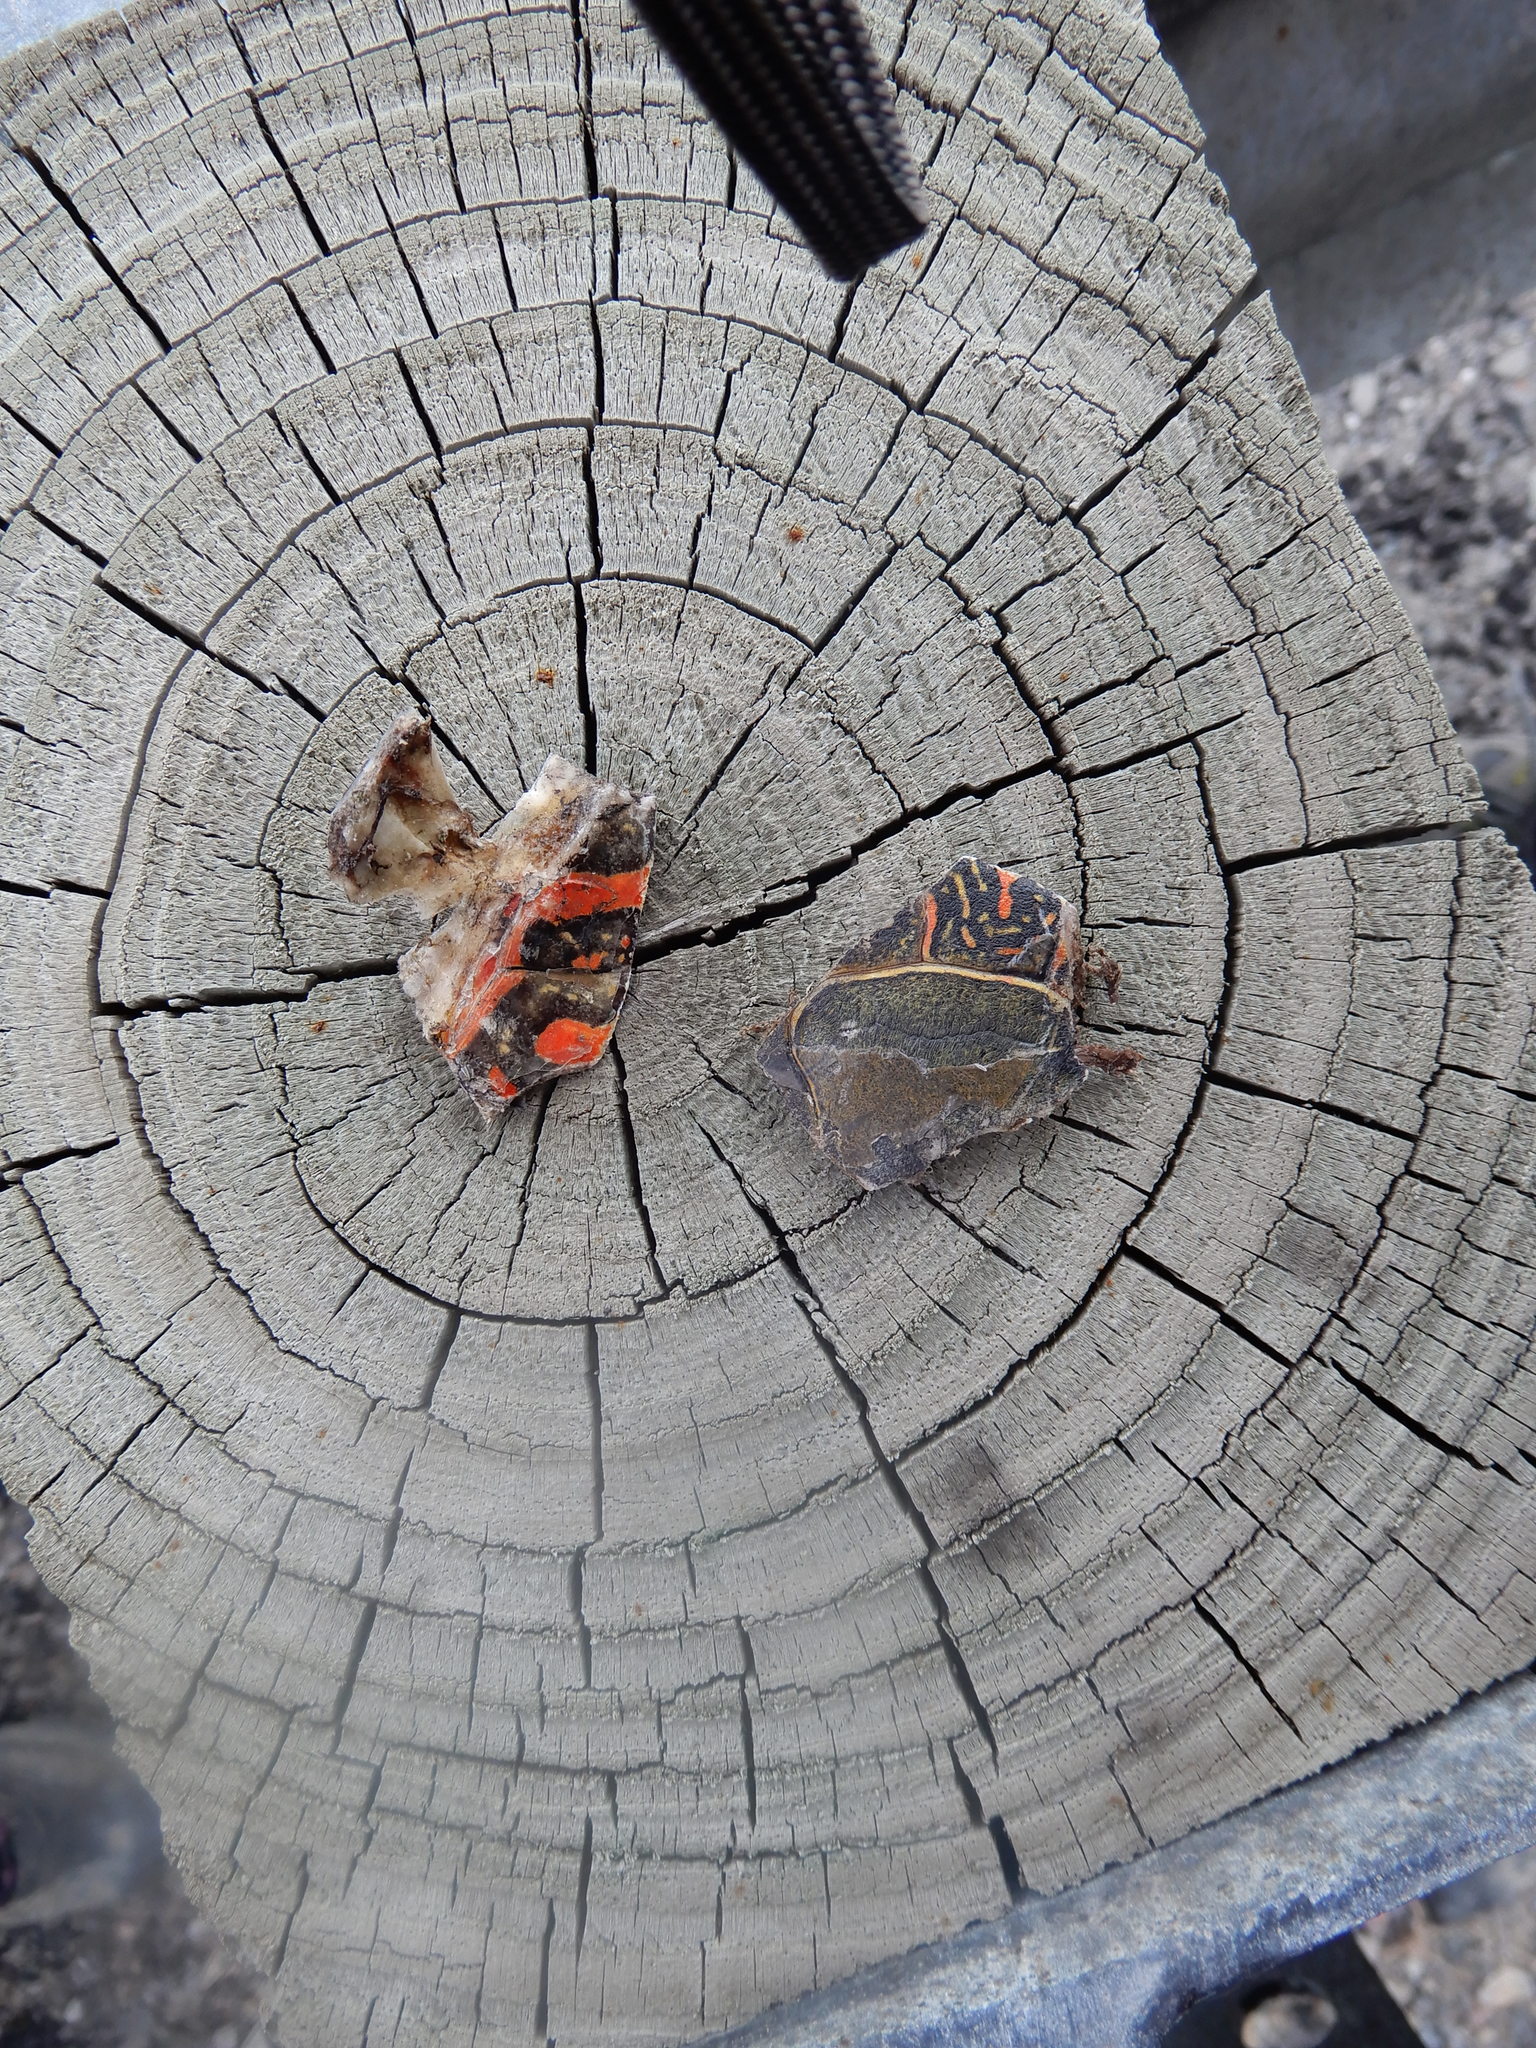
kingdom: Animalia
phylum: Chordata
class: Testudines
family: Emydidae
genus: Chrysemys
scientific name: Chrysemys picta
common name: Painted turtle
